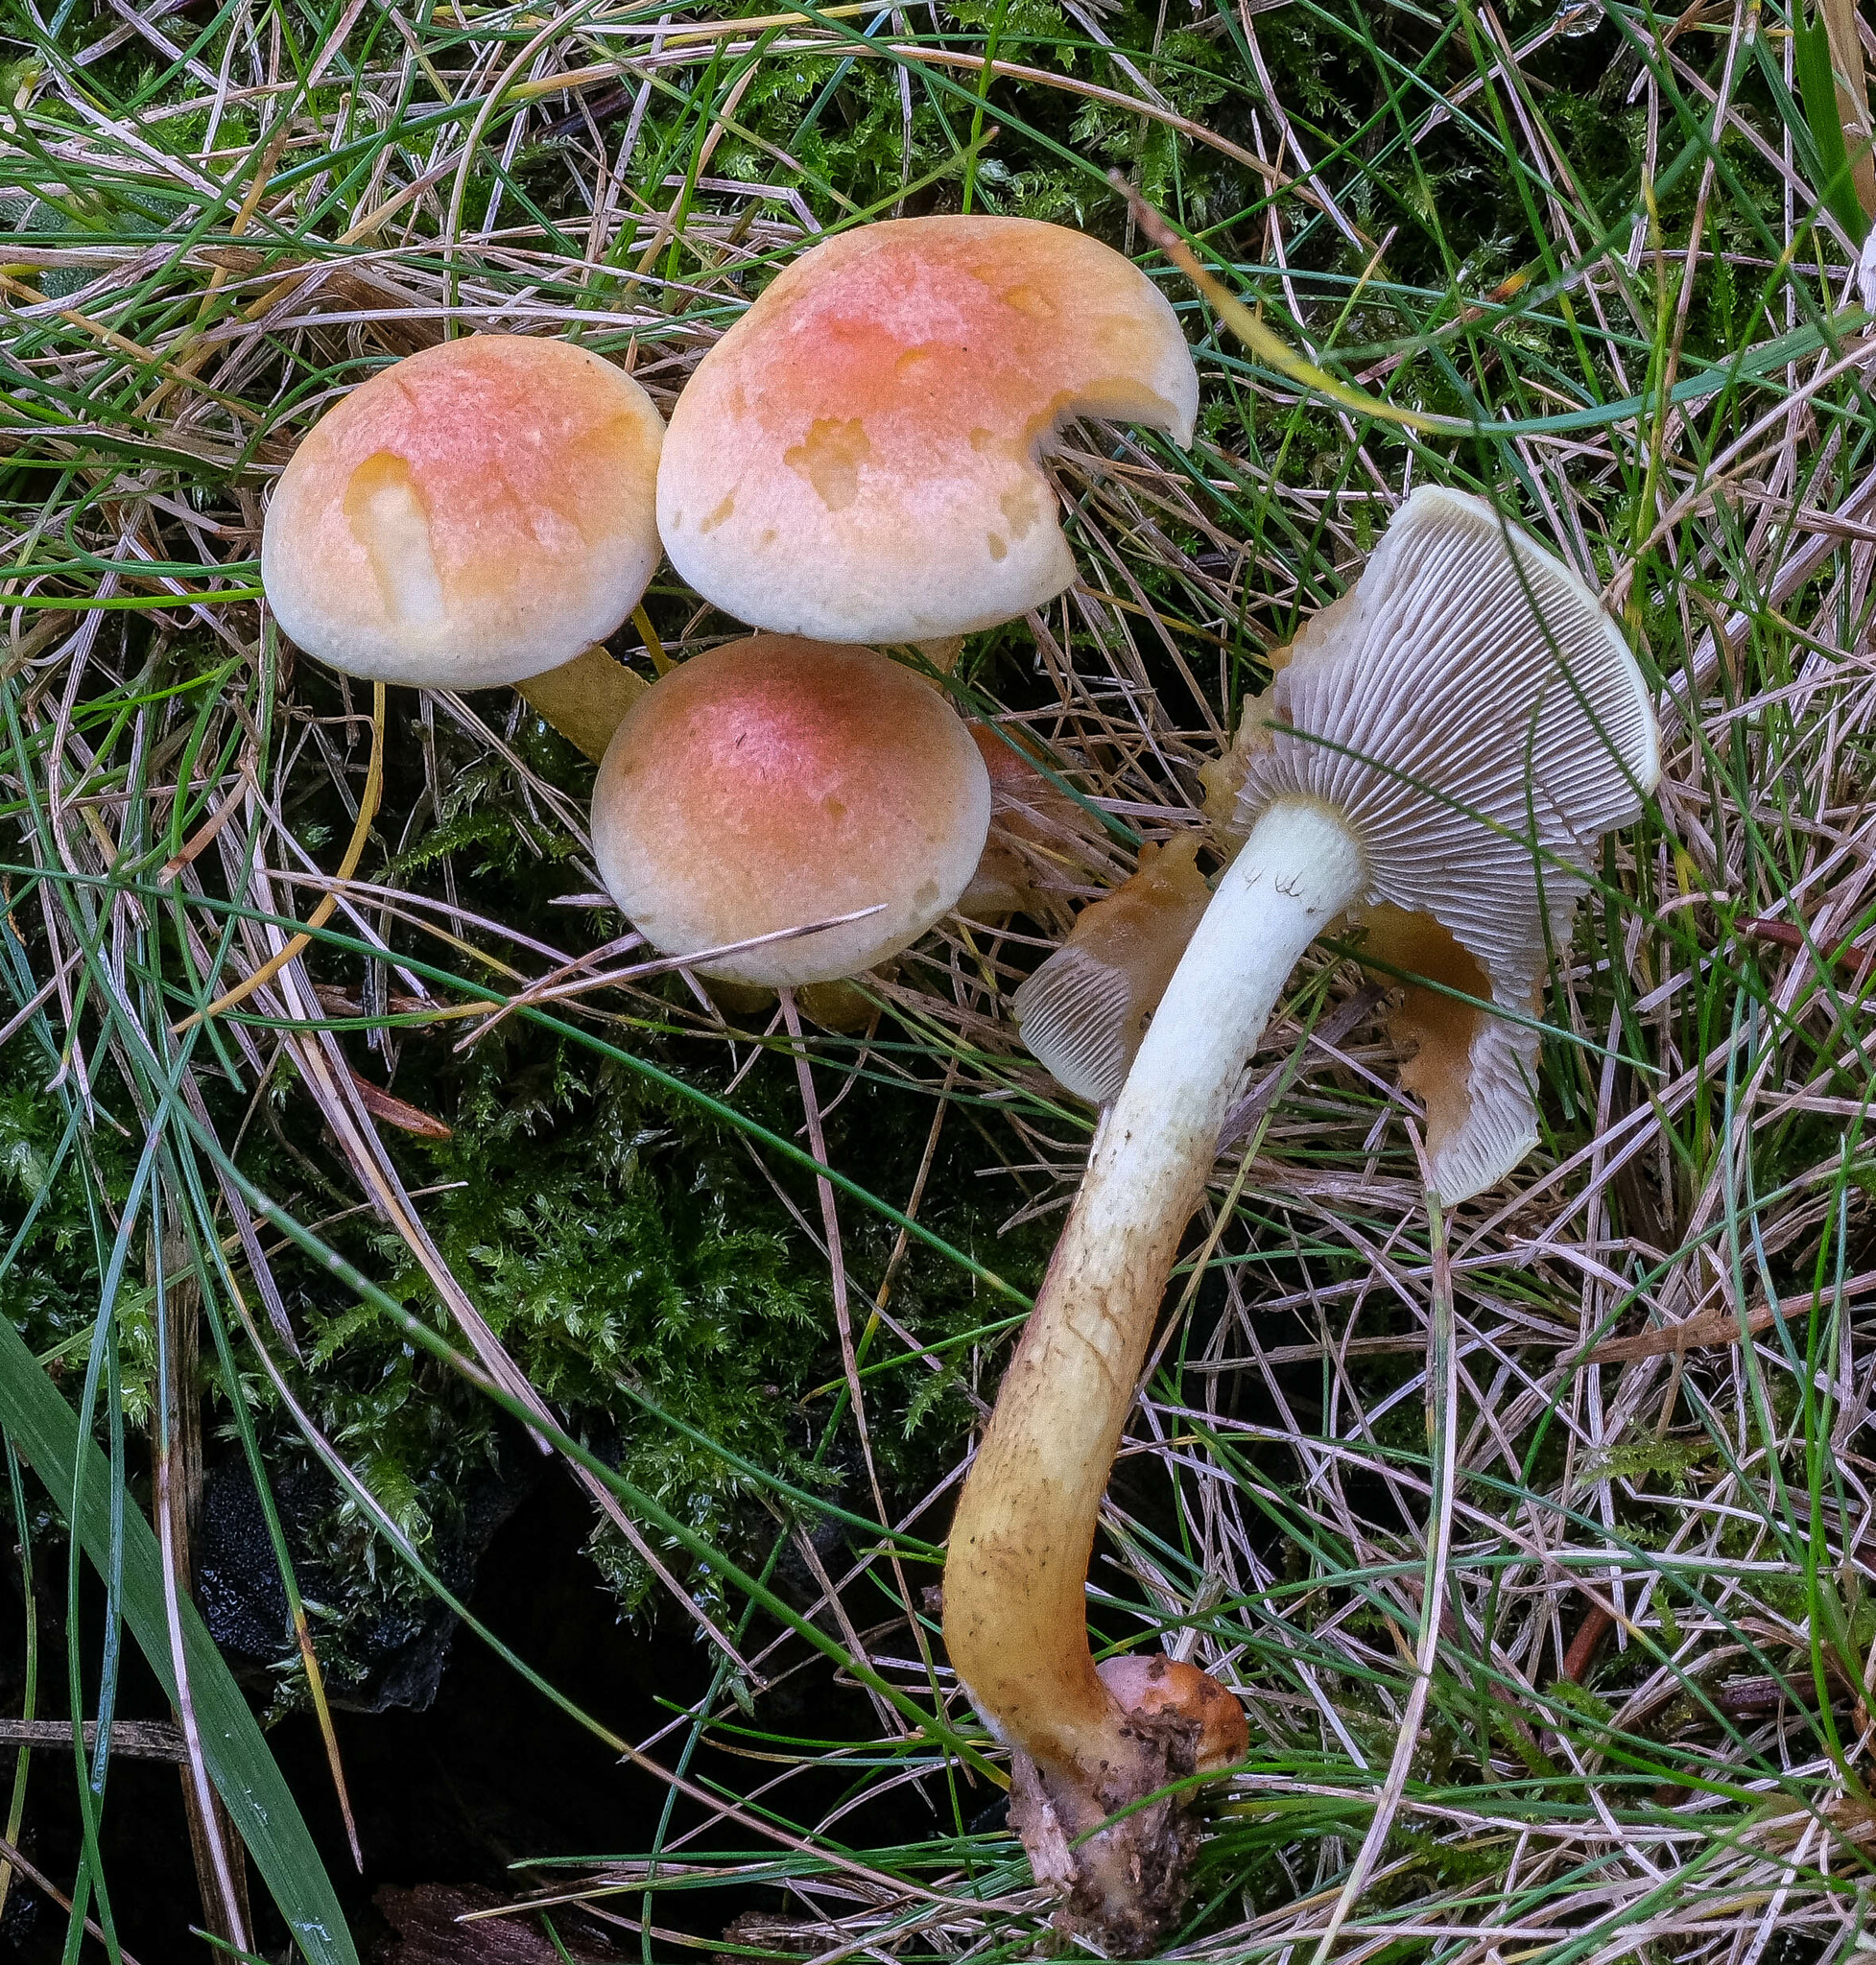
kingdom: Fungi
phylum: Basidiomycota
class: Agaricomycetes
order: Agaricales
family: Strophariaceae
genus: Hypholoma
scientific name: Hypholoma fasciculare
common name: Sulphur tuft
